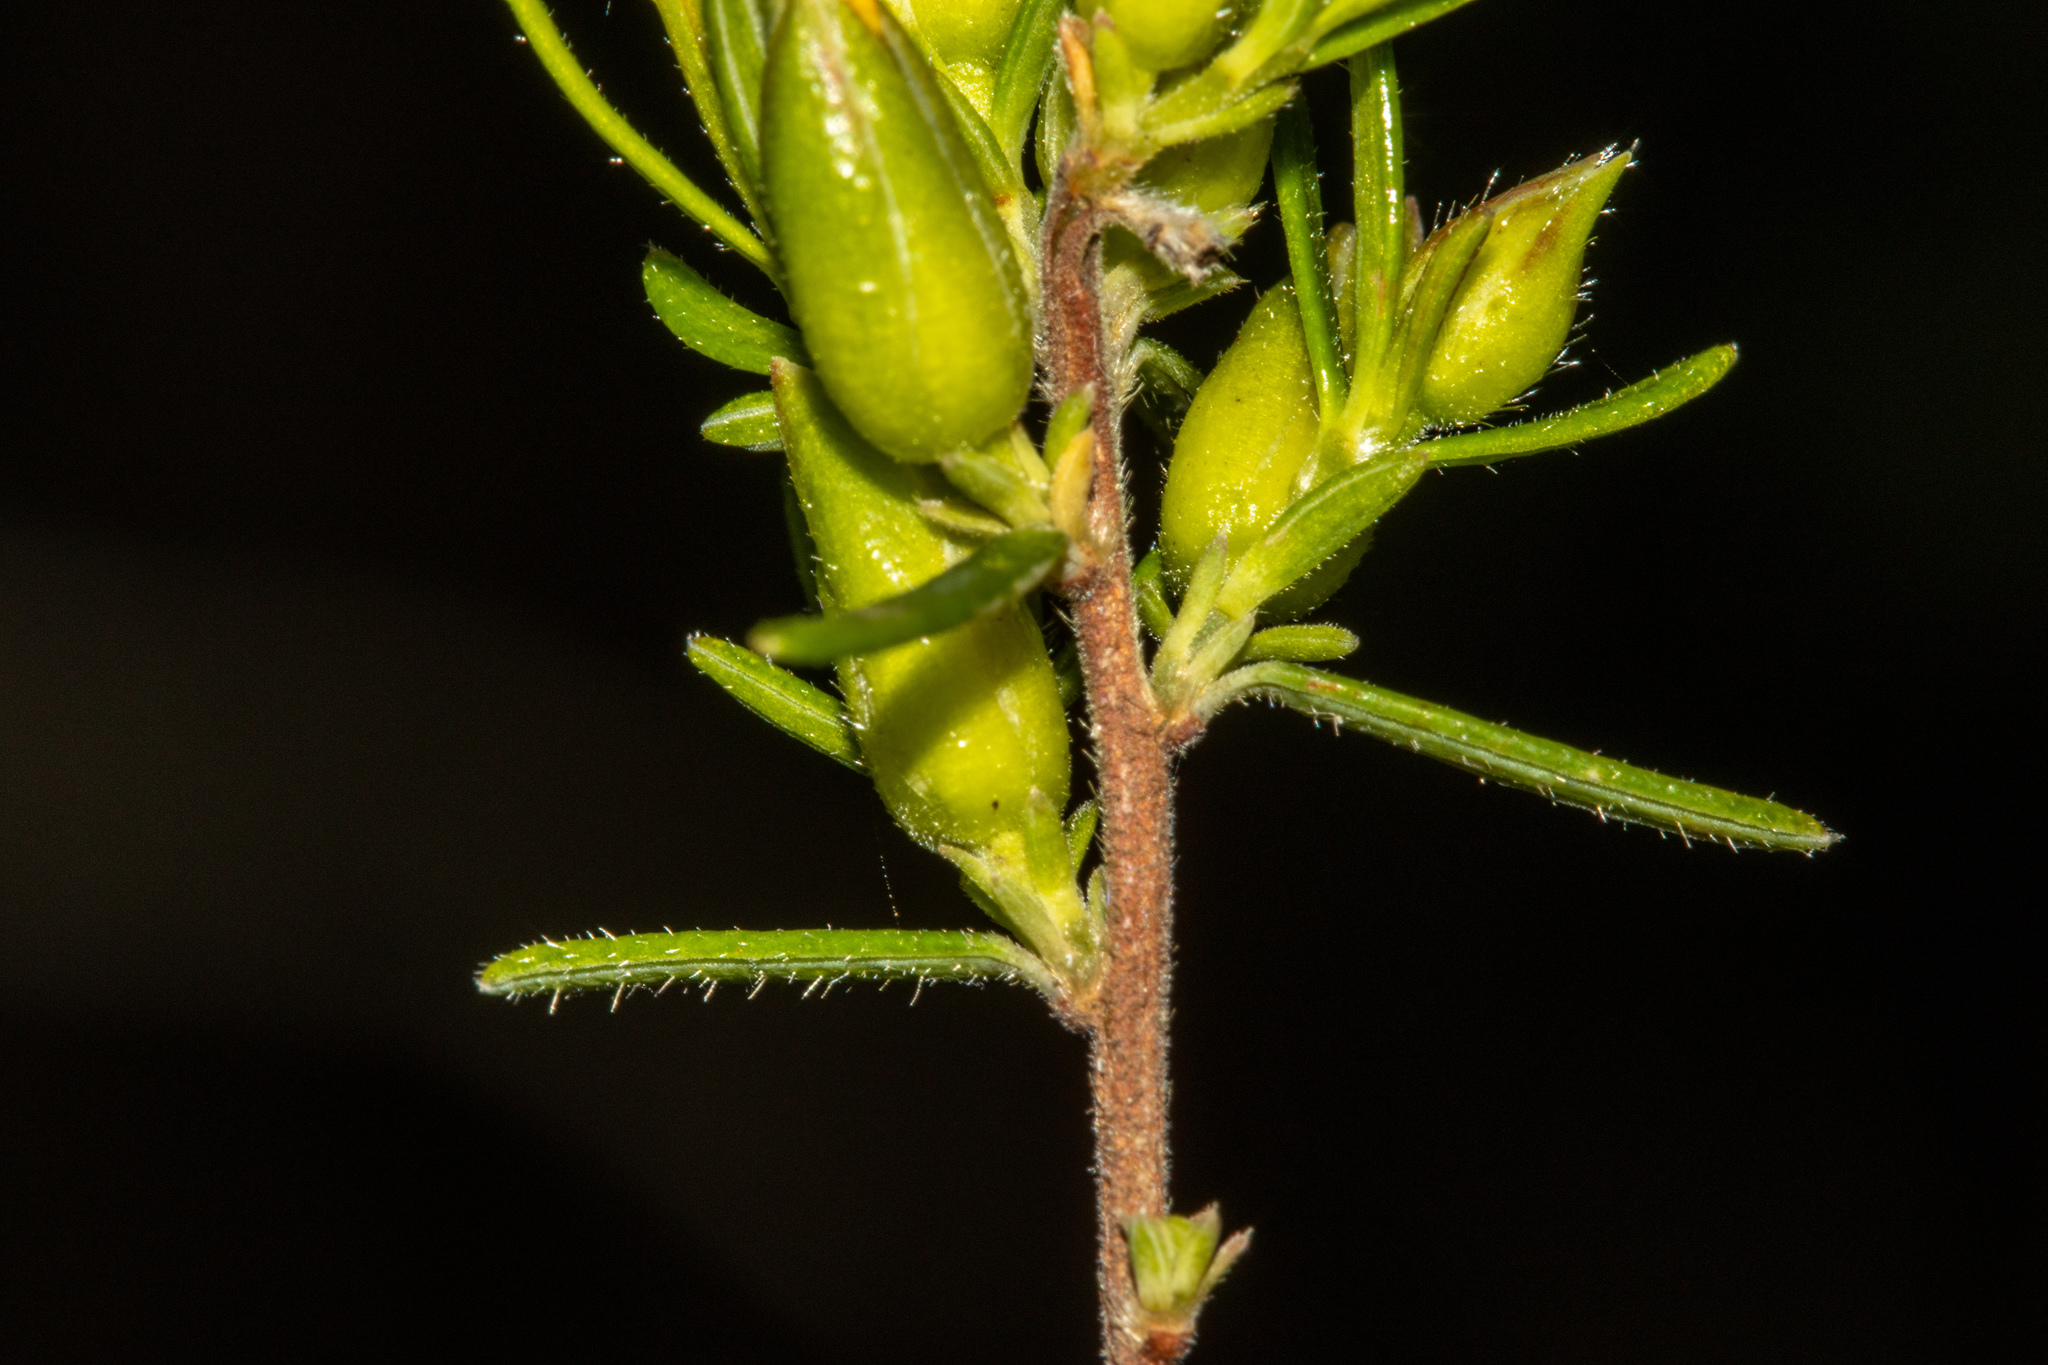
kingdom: Plantae
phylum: Tracheophyta
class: Magnoliopsida
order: Dilleniales
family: Dilleniaceae
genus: Hibbertia
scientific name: Hibbertia riparia
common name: Erect guinea-flower
